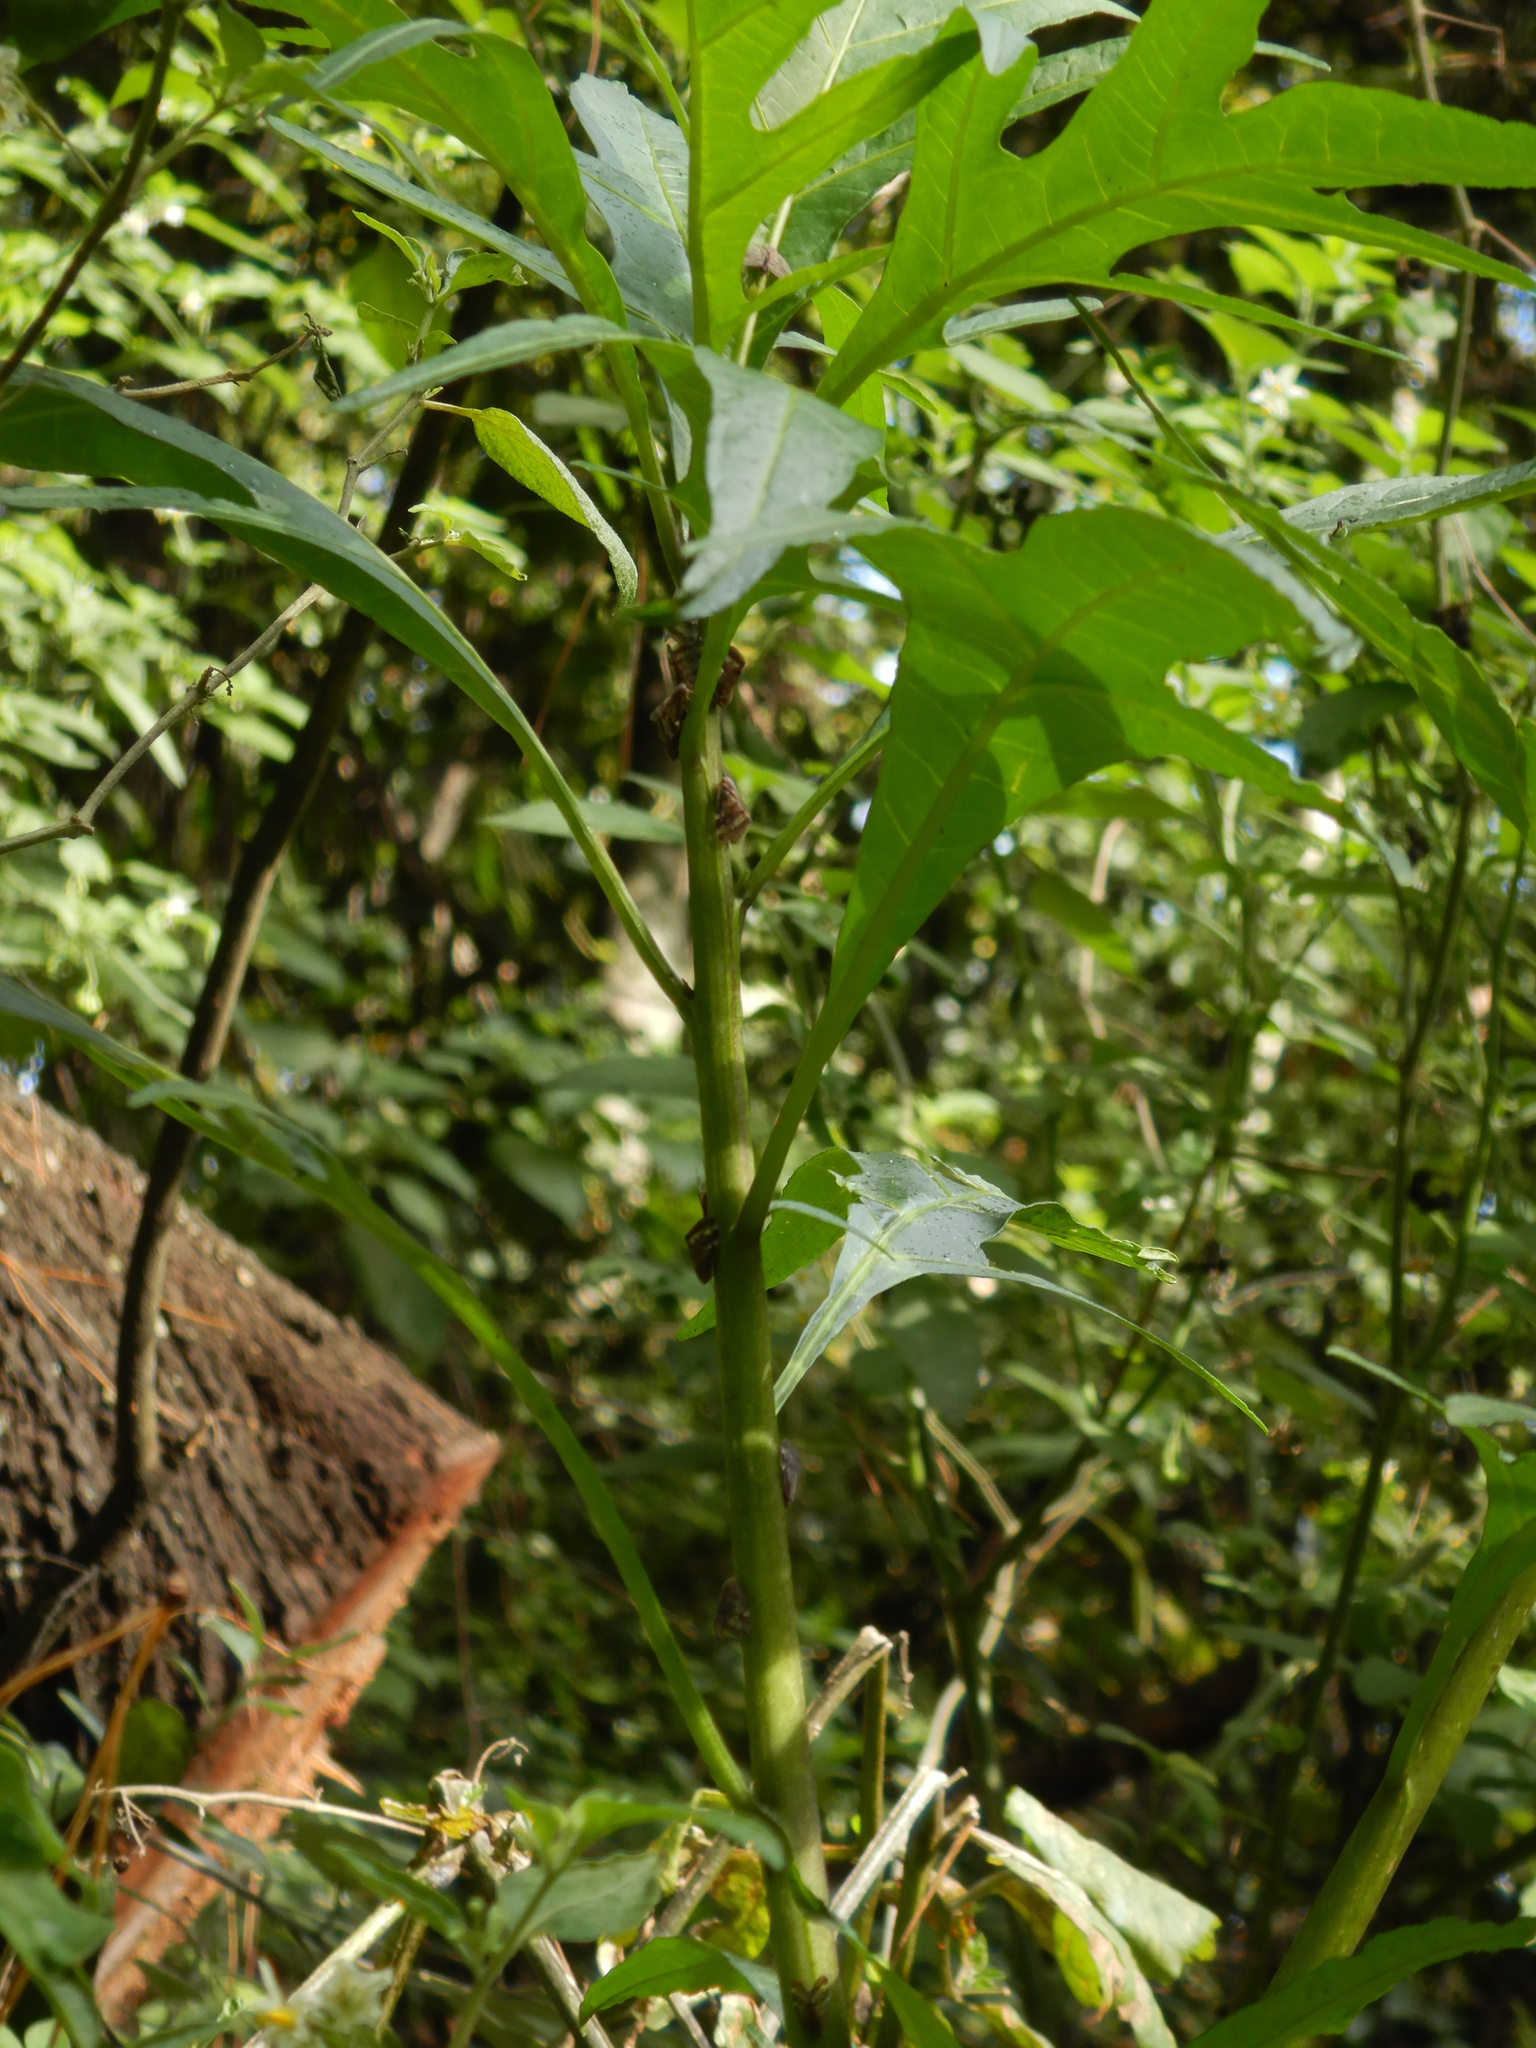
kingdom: Animalia
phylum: Arthropoda
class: Insecta
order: Hemiptera
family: Ricaniidae
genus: Scolypopa
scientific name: Scolypopa australis
